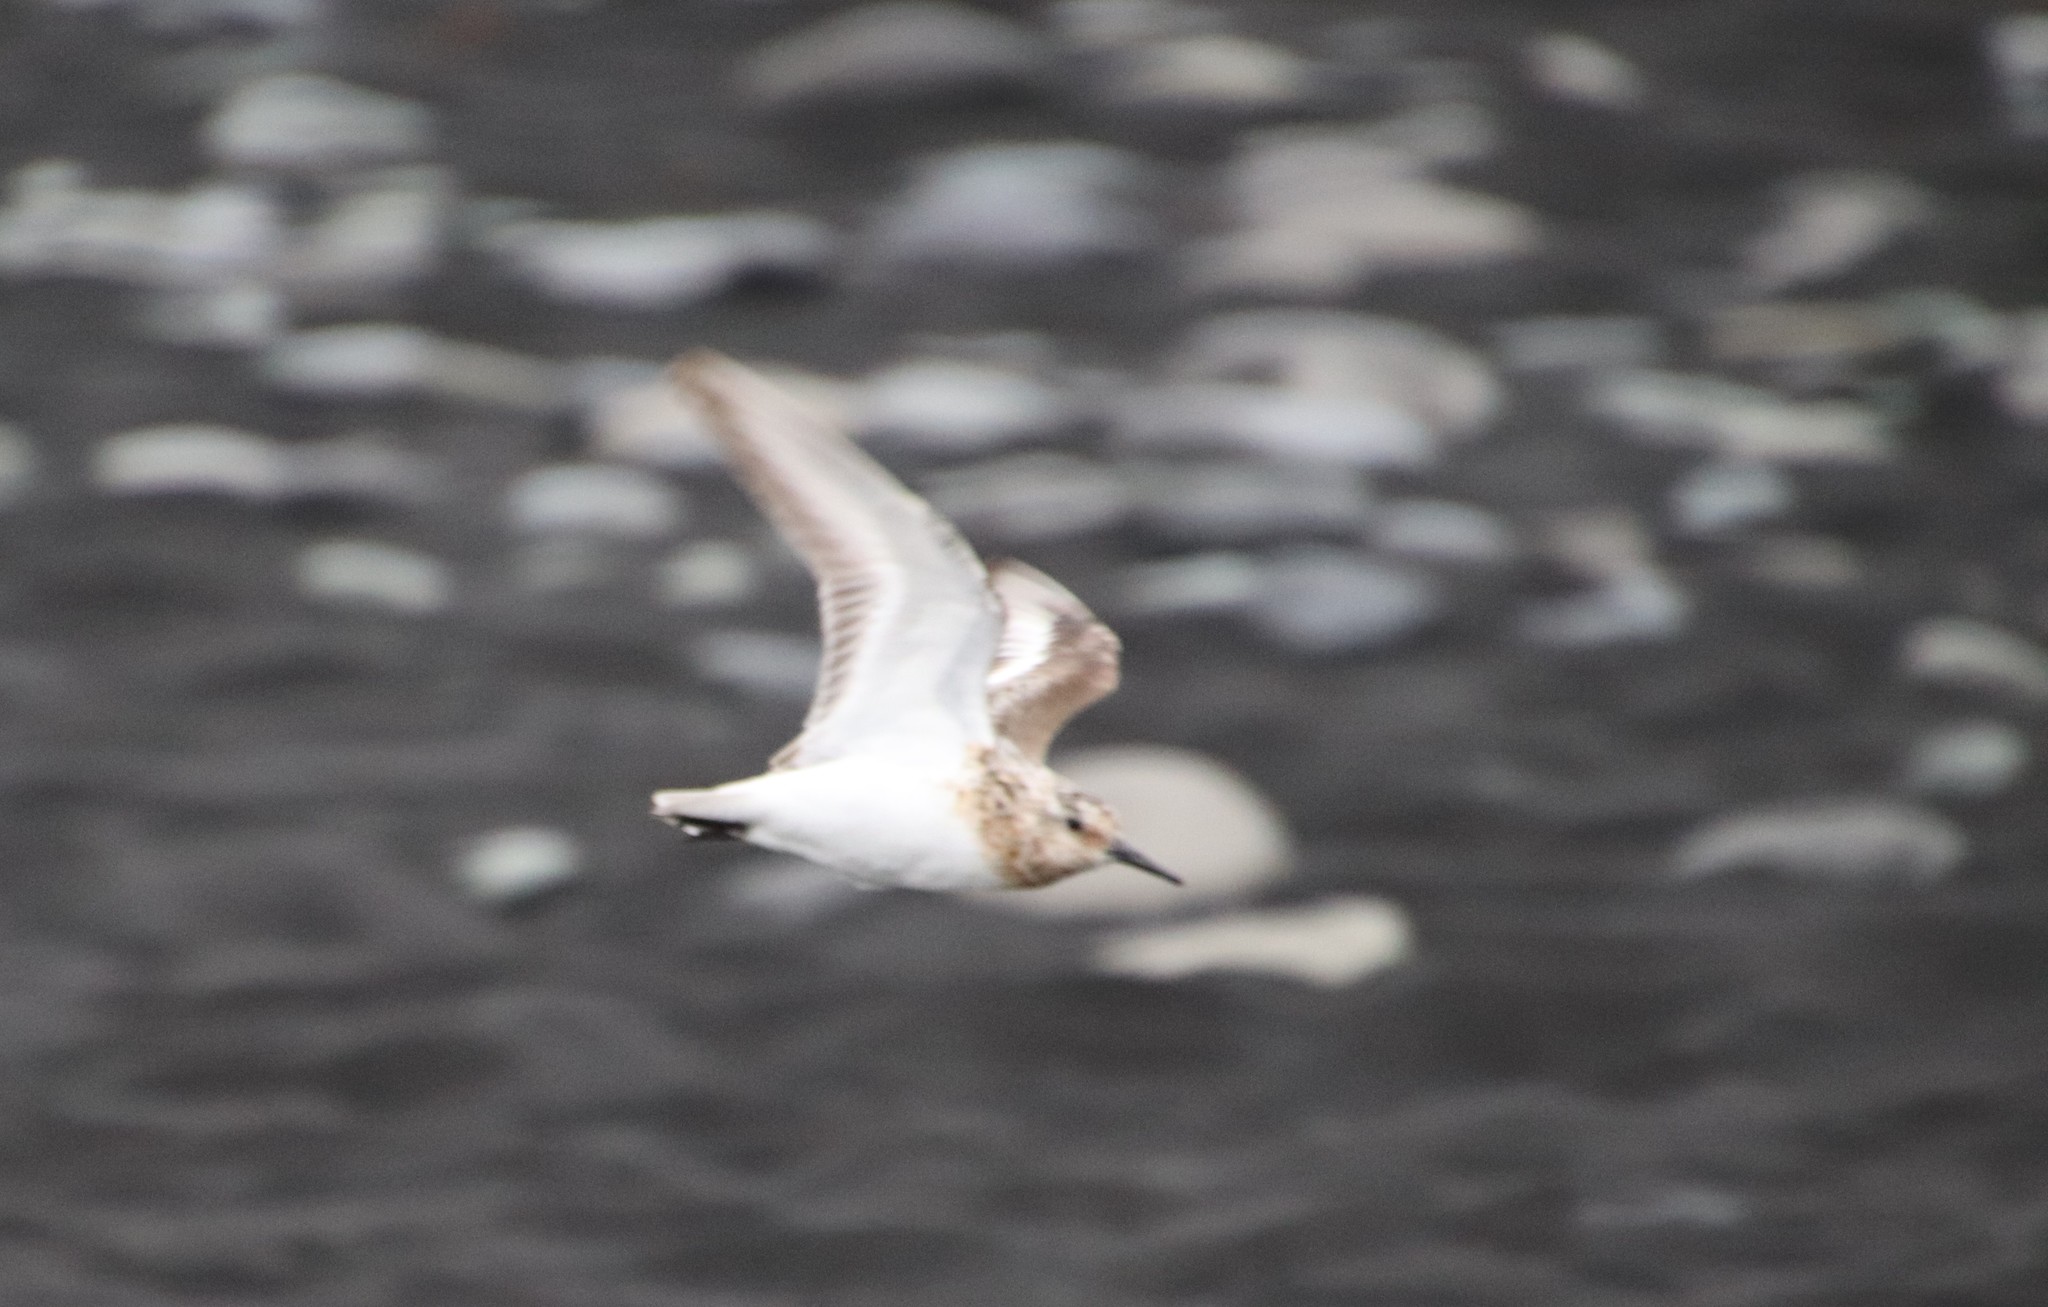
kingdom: Animalia
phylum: Chordata
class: Aves
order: Charadriiformes
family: Scolopacidae
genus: Calidris
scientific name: Calidris alba
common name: Sanderling
